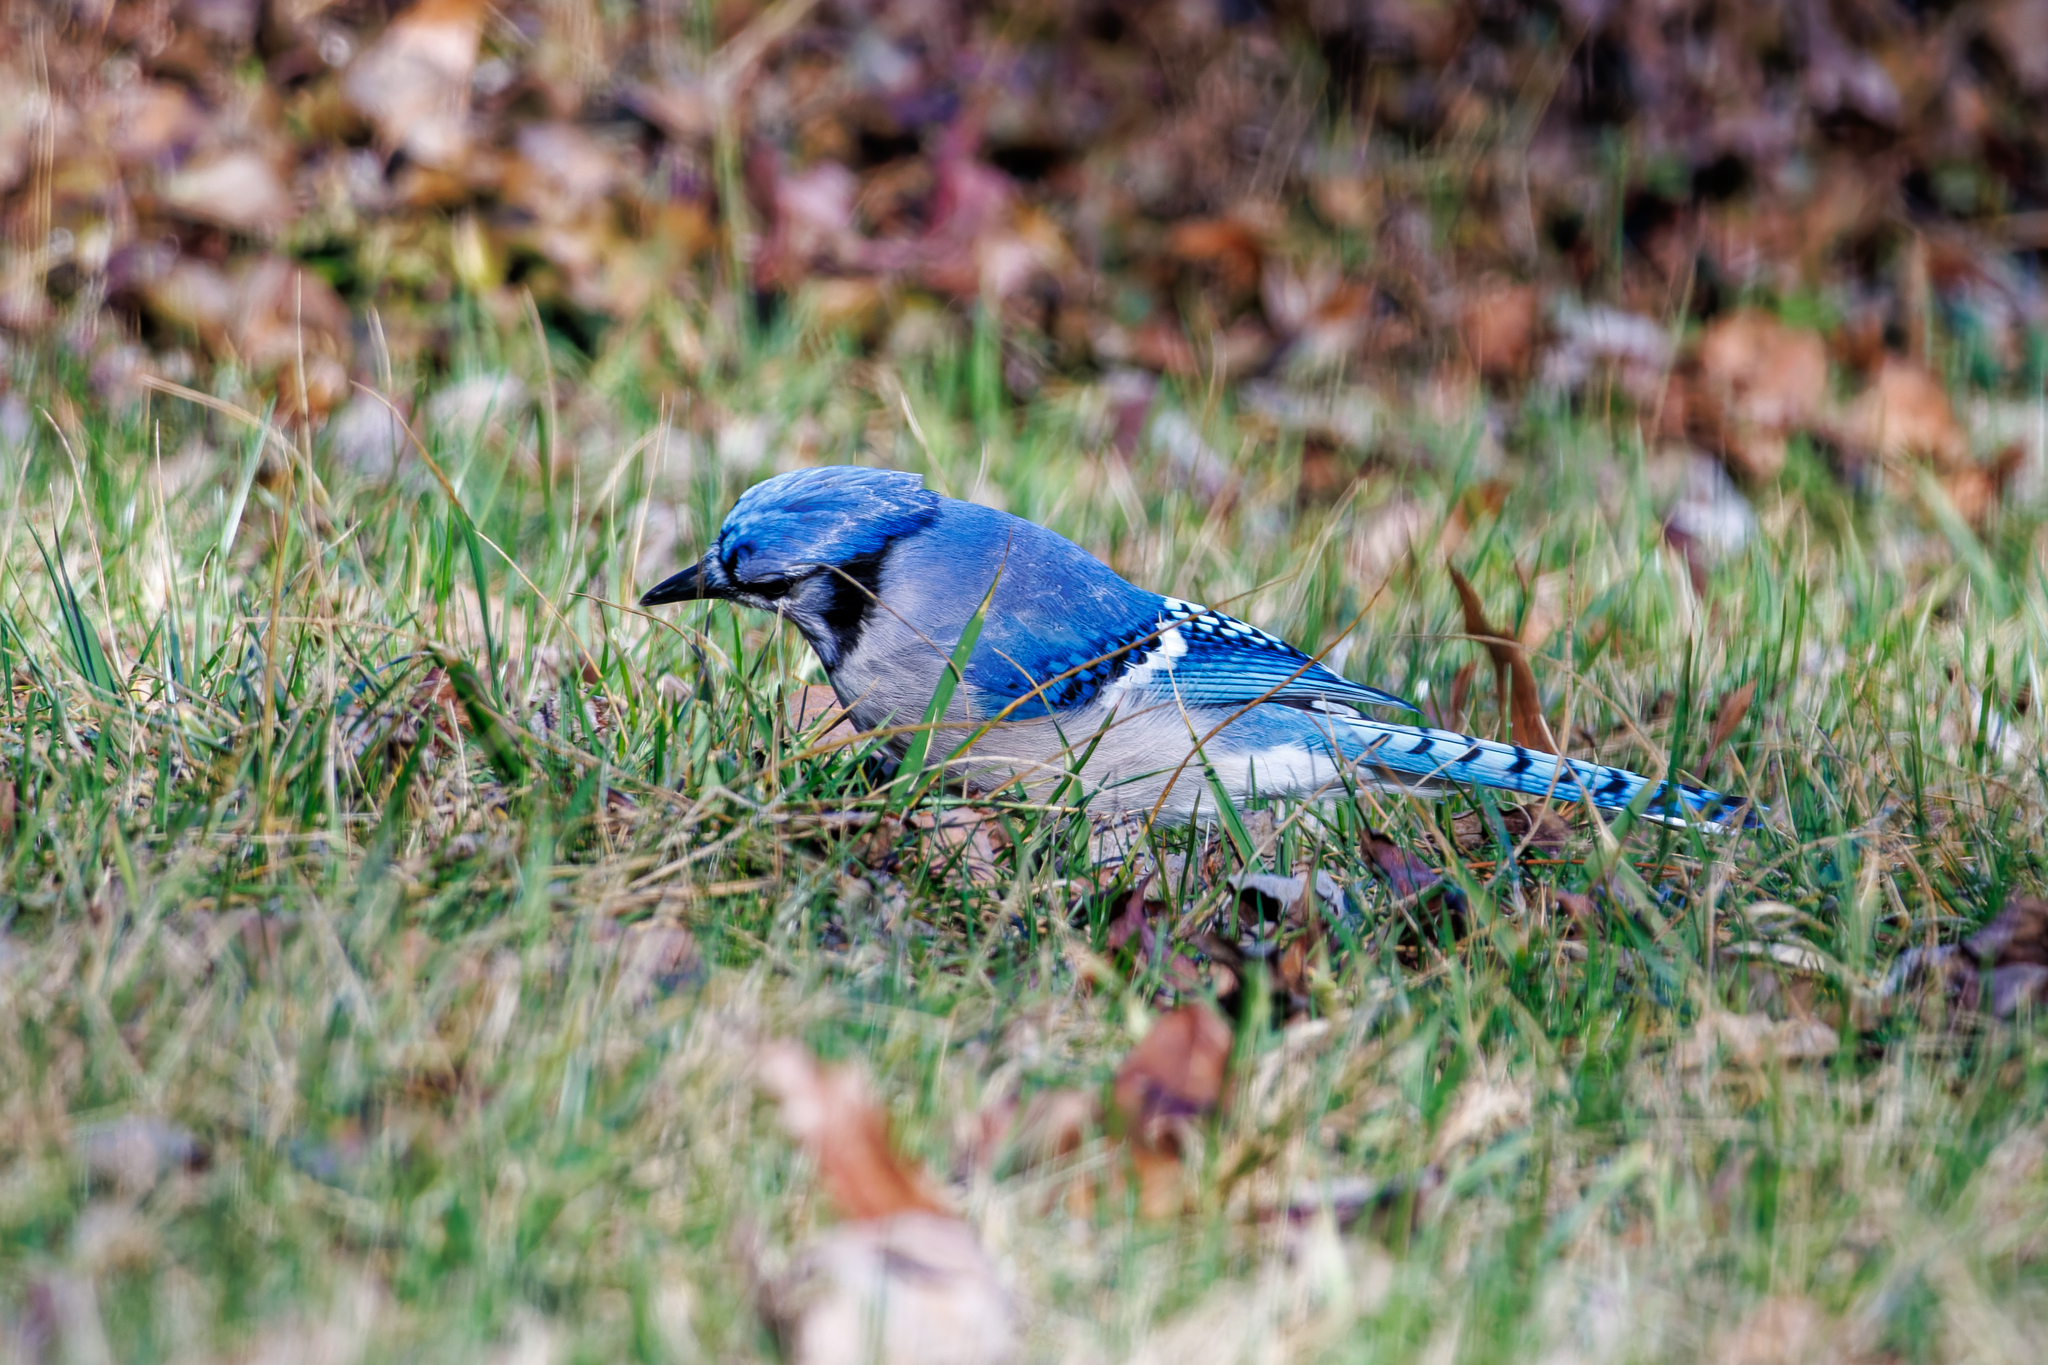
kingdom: Animalia
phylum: Chordata
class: Aves
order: Passeriformes
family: Corvidae
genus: Cyanocitta
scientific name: Cyanocitta cristata
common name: Blue jay
